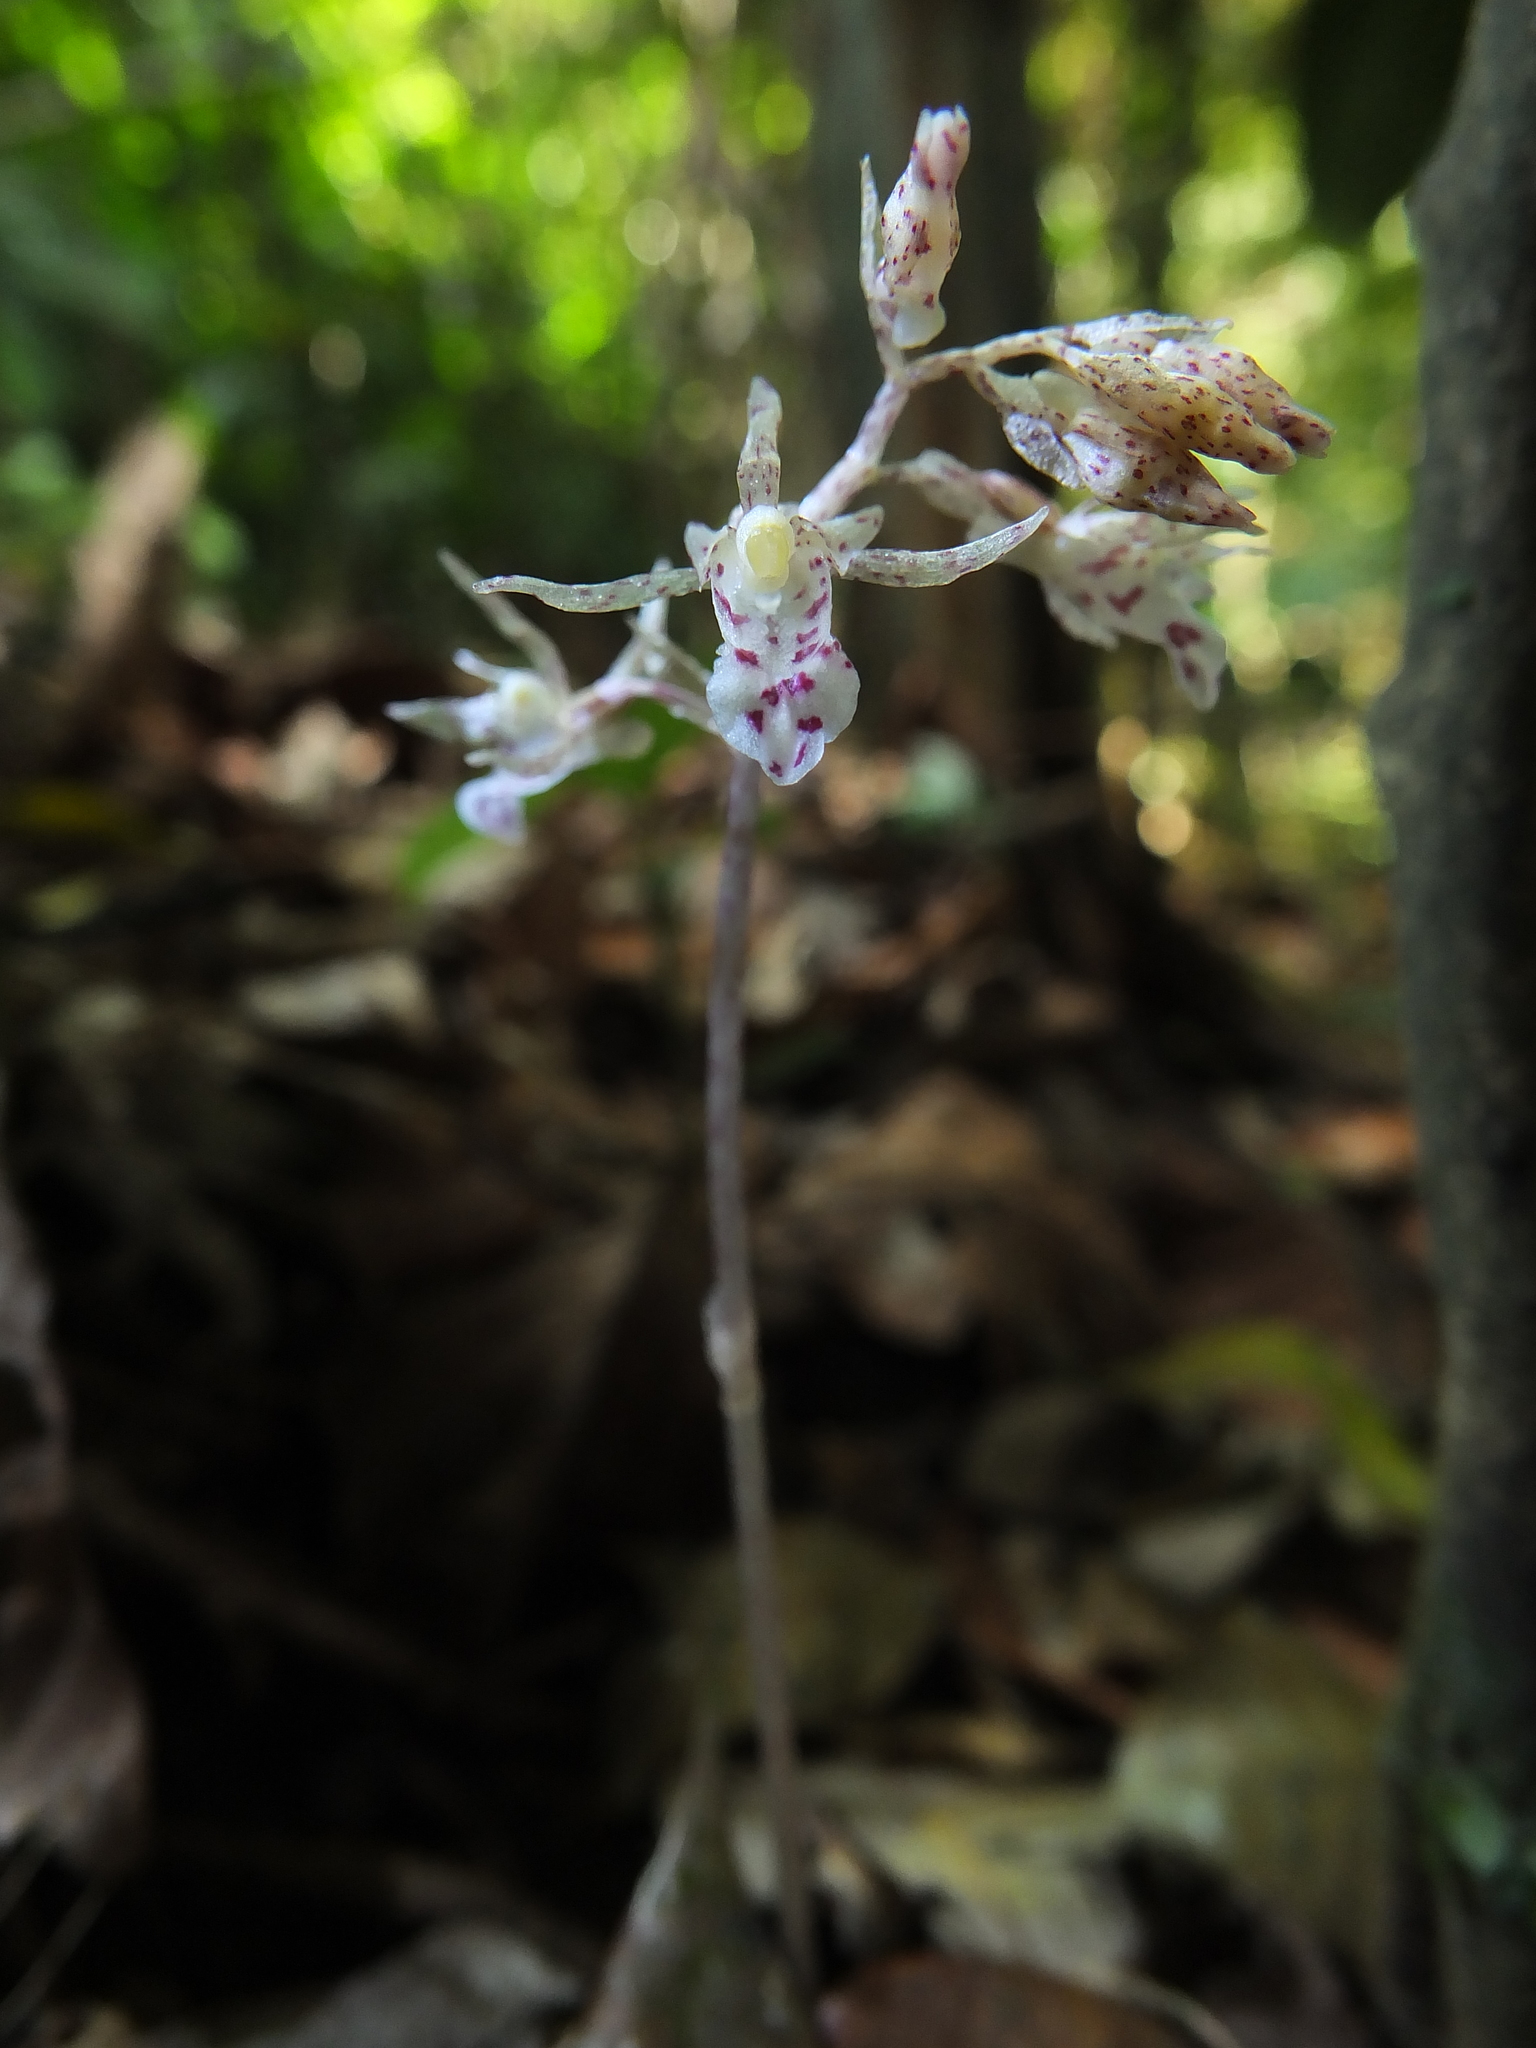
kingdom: Plantae
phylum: Tracheophyta
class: Liliopsida
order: Asparagales
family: Orchidaceae
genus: Epipogium
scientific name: Epipogium roseum
